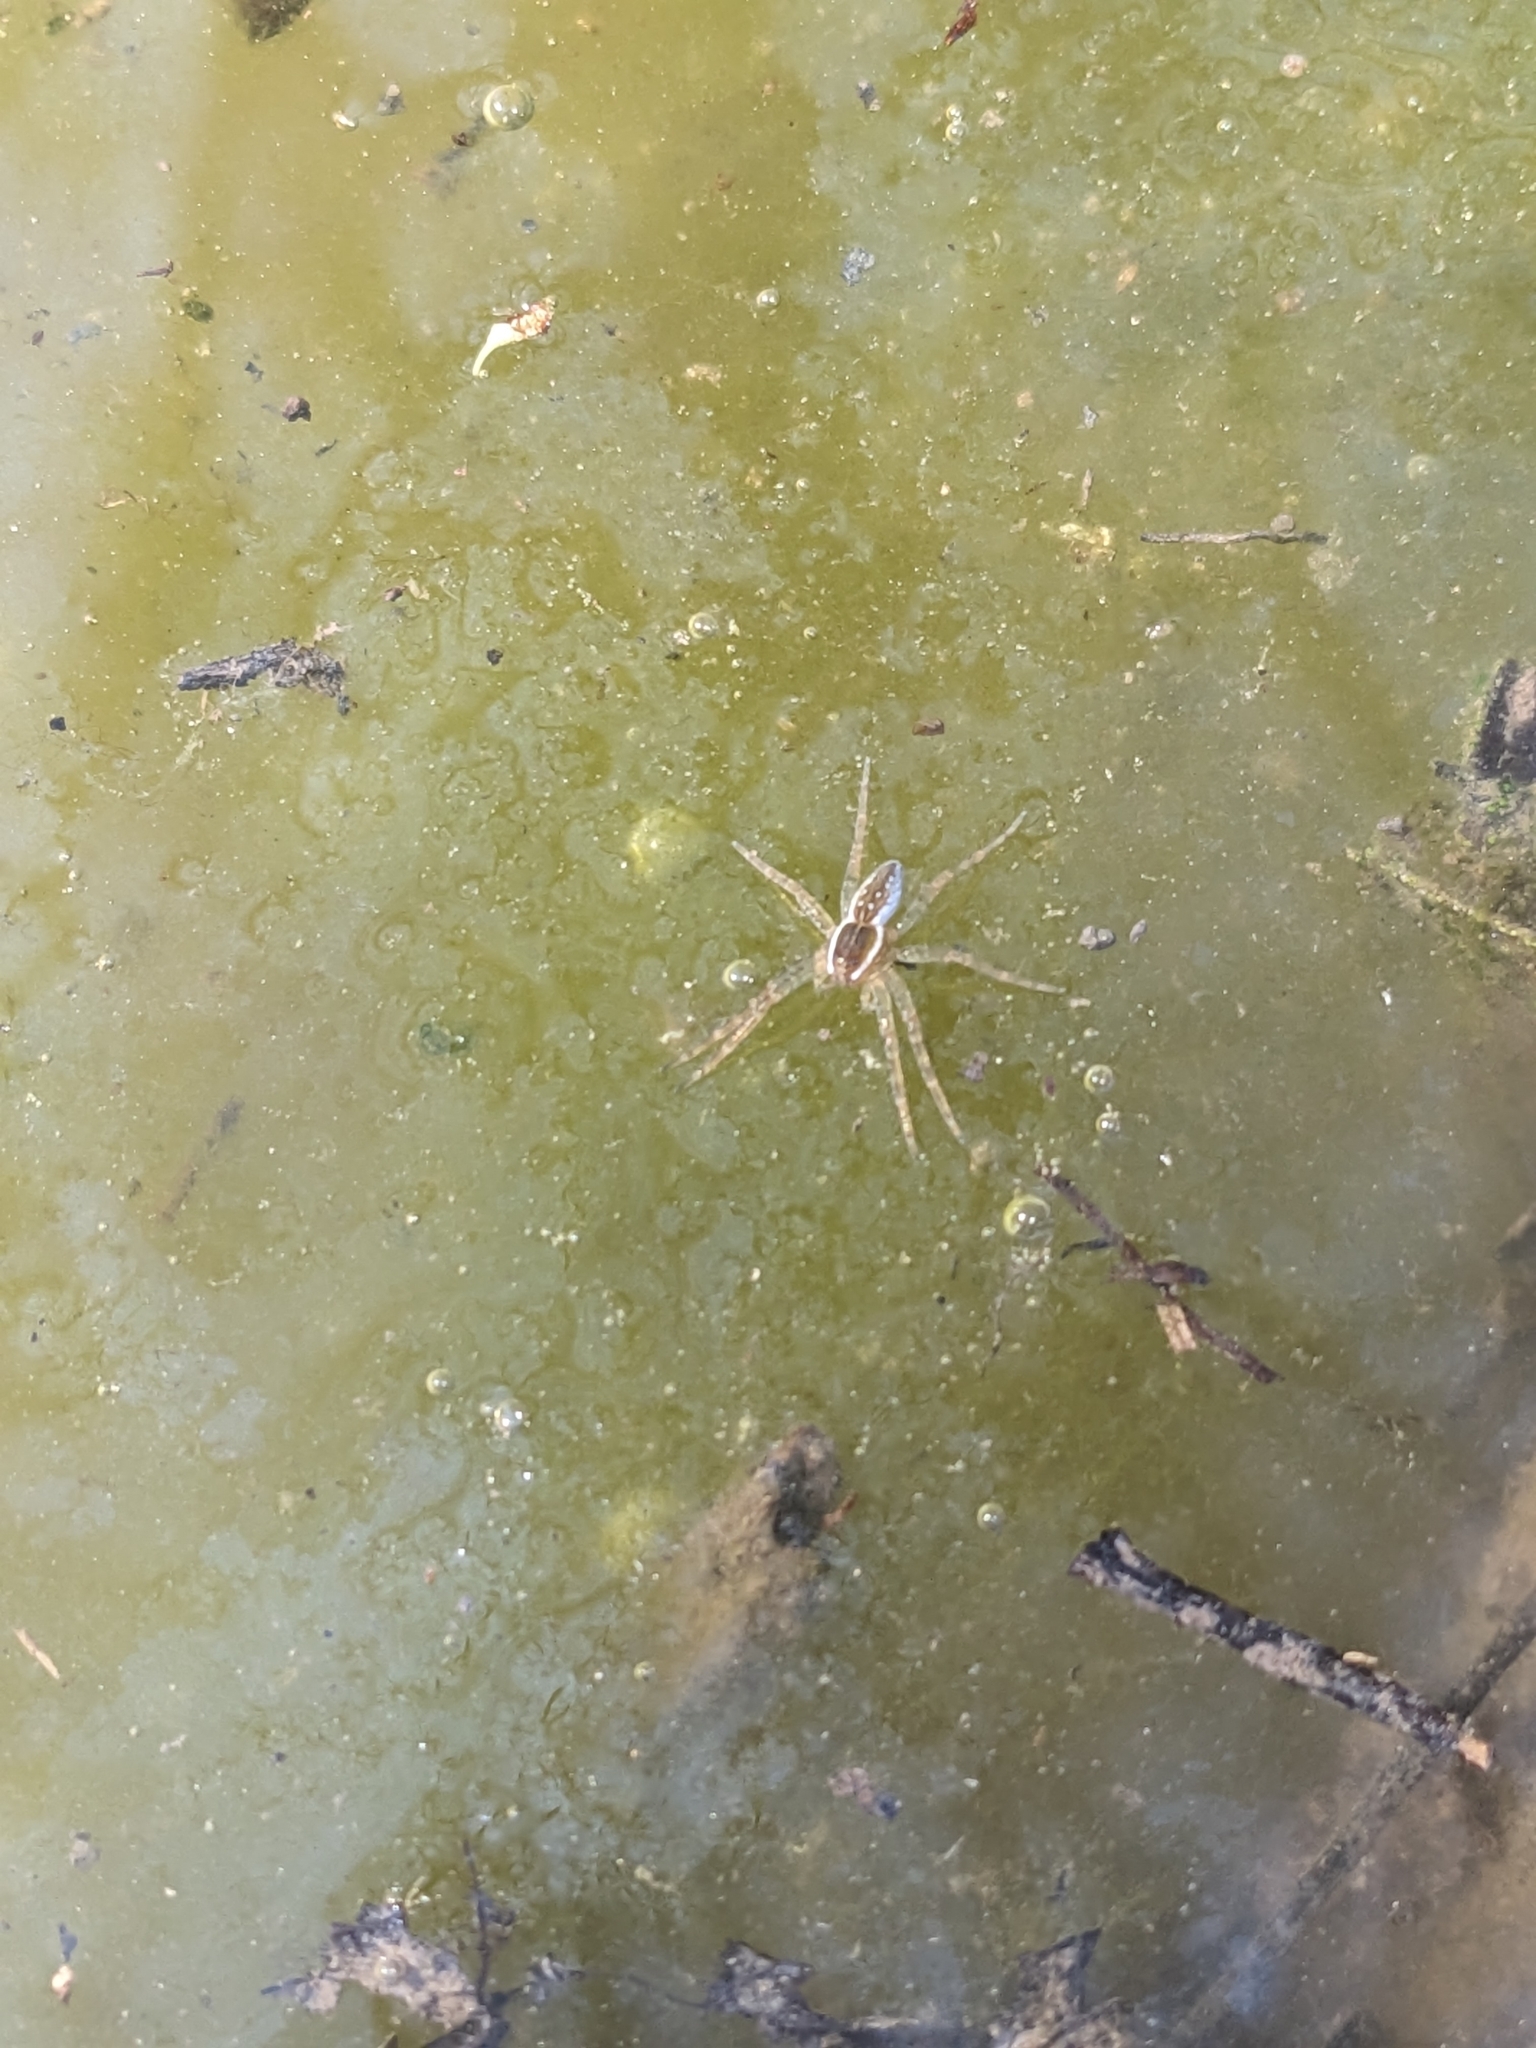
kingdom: Animalia
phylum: Arthropoda
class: Arachnida
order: Araneae
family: Pisauridae
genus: Dolomedes
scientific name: Dolomedes triton
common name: Six-spotted fishing spider
